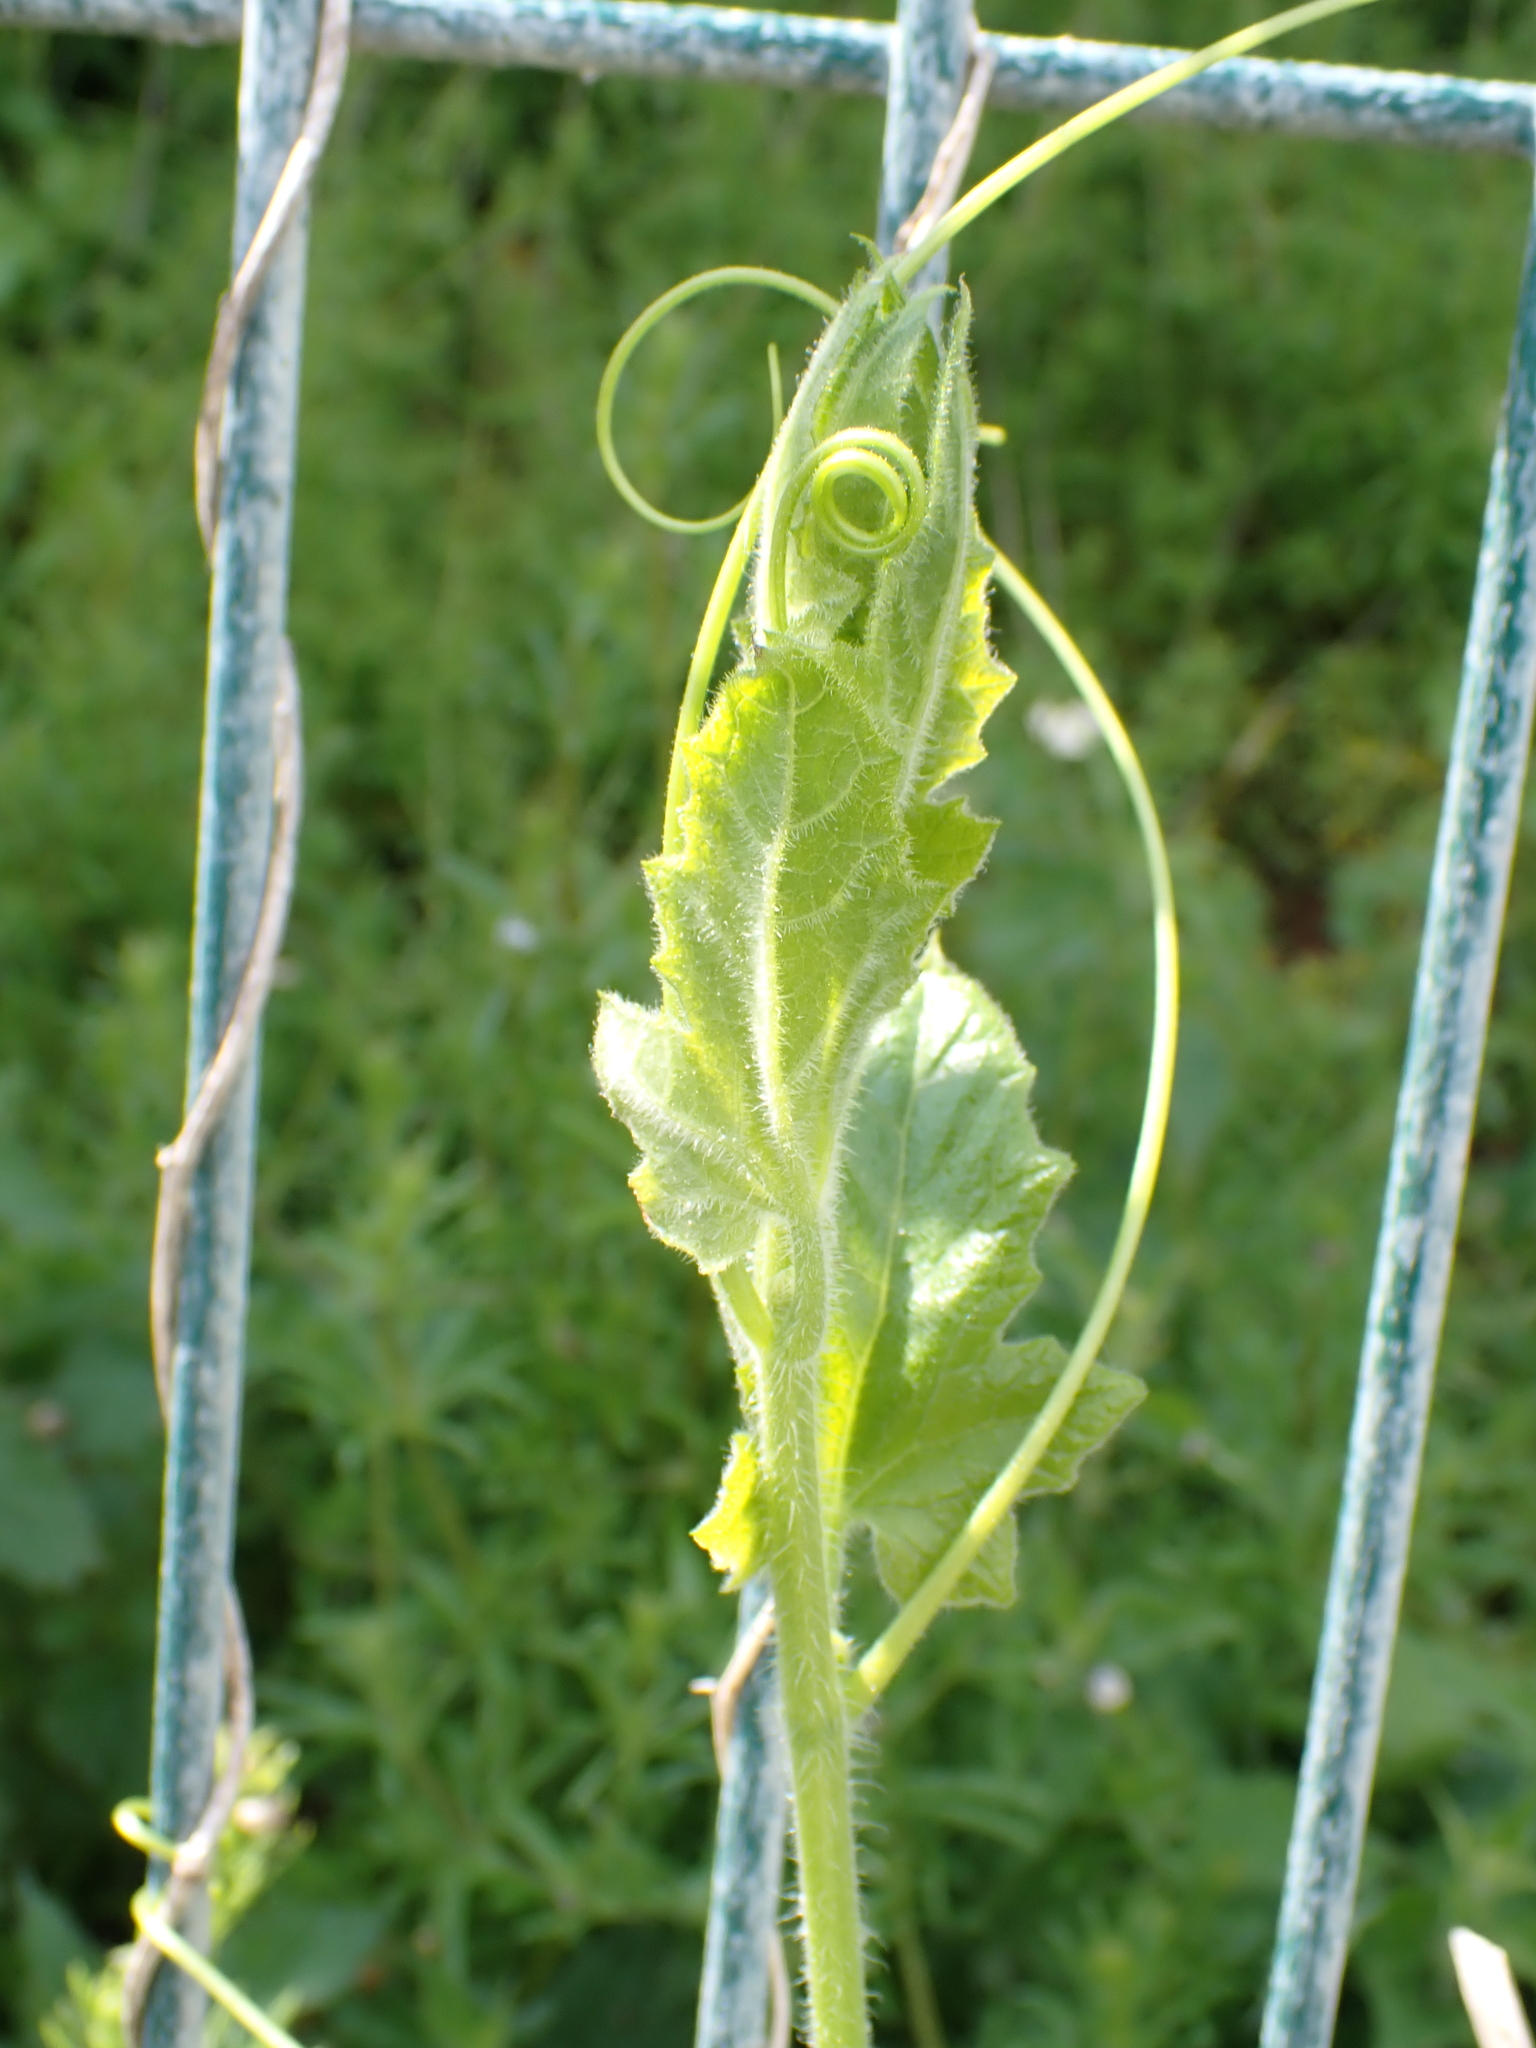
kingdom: Plantae
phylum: Tracheophyta
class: Magnoliopsida
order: Cucurbitales
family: Cucurbitaceae
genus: Bryonia
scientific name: Bryonia cretica
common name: Cretan bryony
